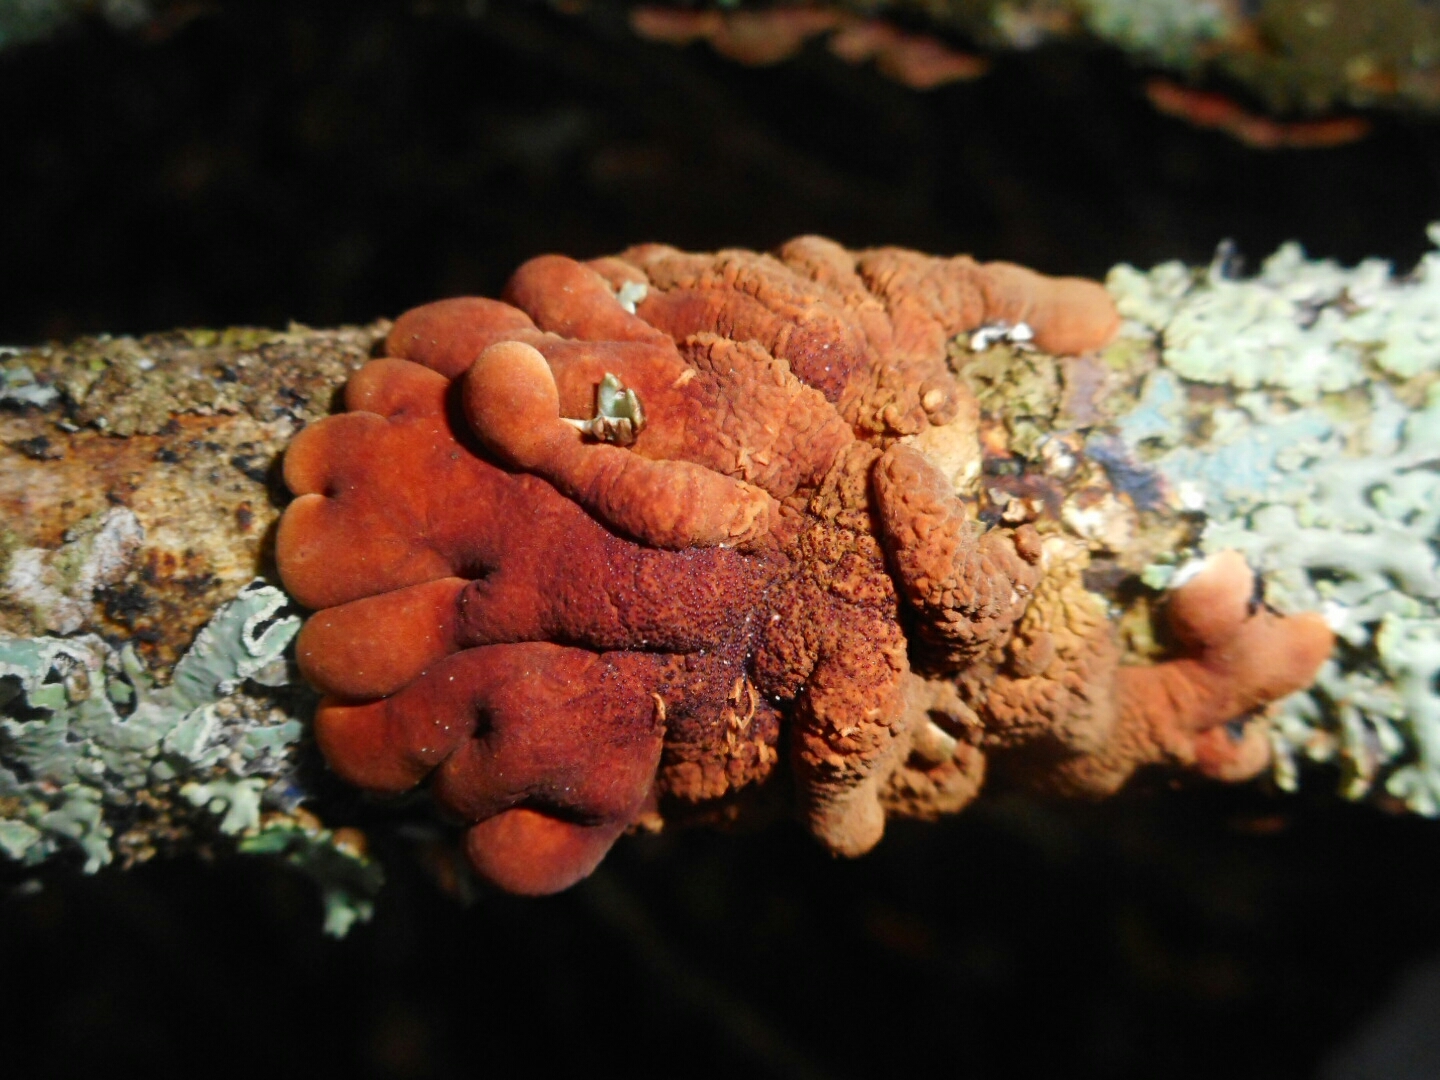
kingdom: Fungi
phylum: Ascomycota
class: Sordariomycetes
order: Hypocreales
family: Hypocreaceae
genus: Hypocreopsis
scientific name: Hypocreopsis lichenoides
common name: Willow gloves
